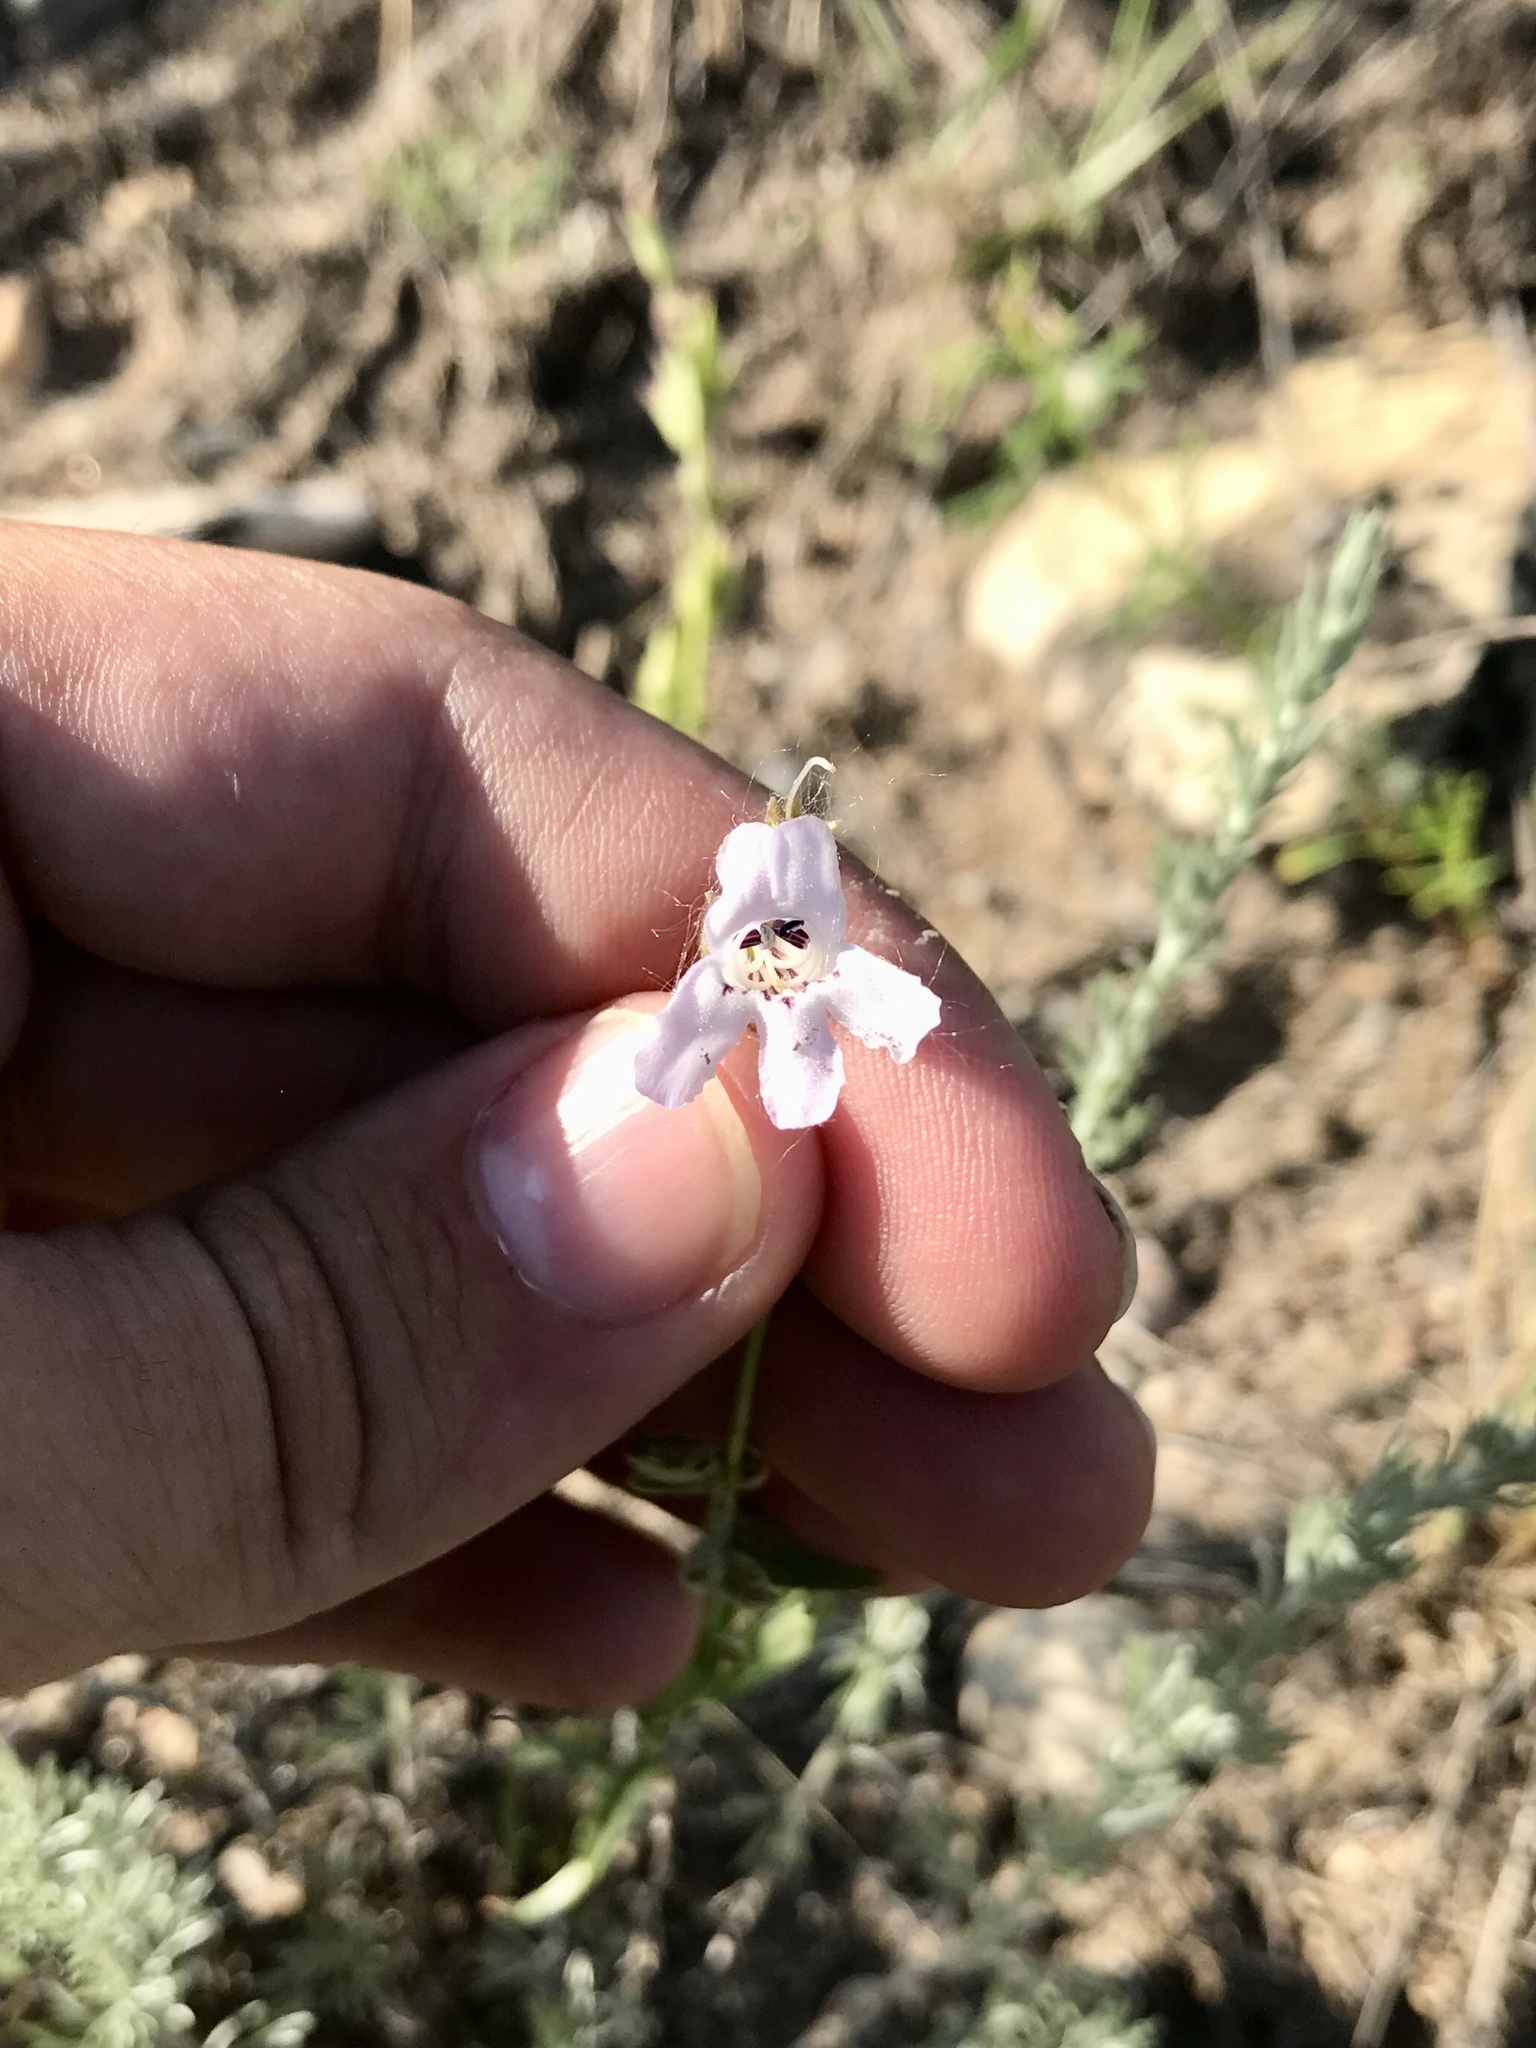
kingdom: Plantae
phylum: Tracheophyta
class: Magnoliopsida
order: Lamiales
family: Plantaginaceae
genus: Penstemon
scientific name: Penstemon albidus
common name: White beardtongue
